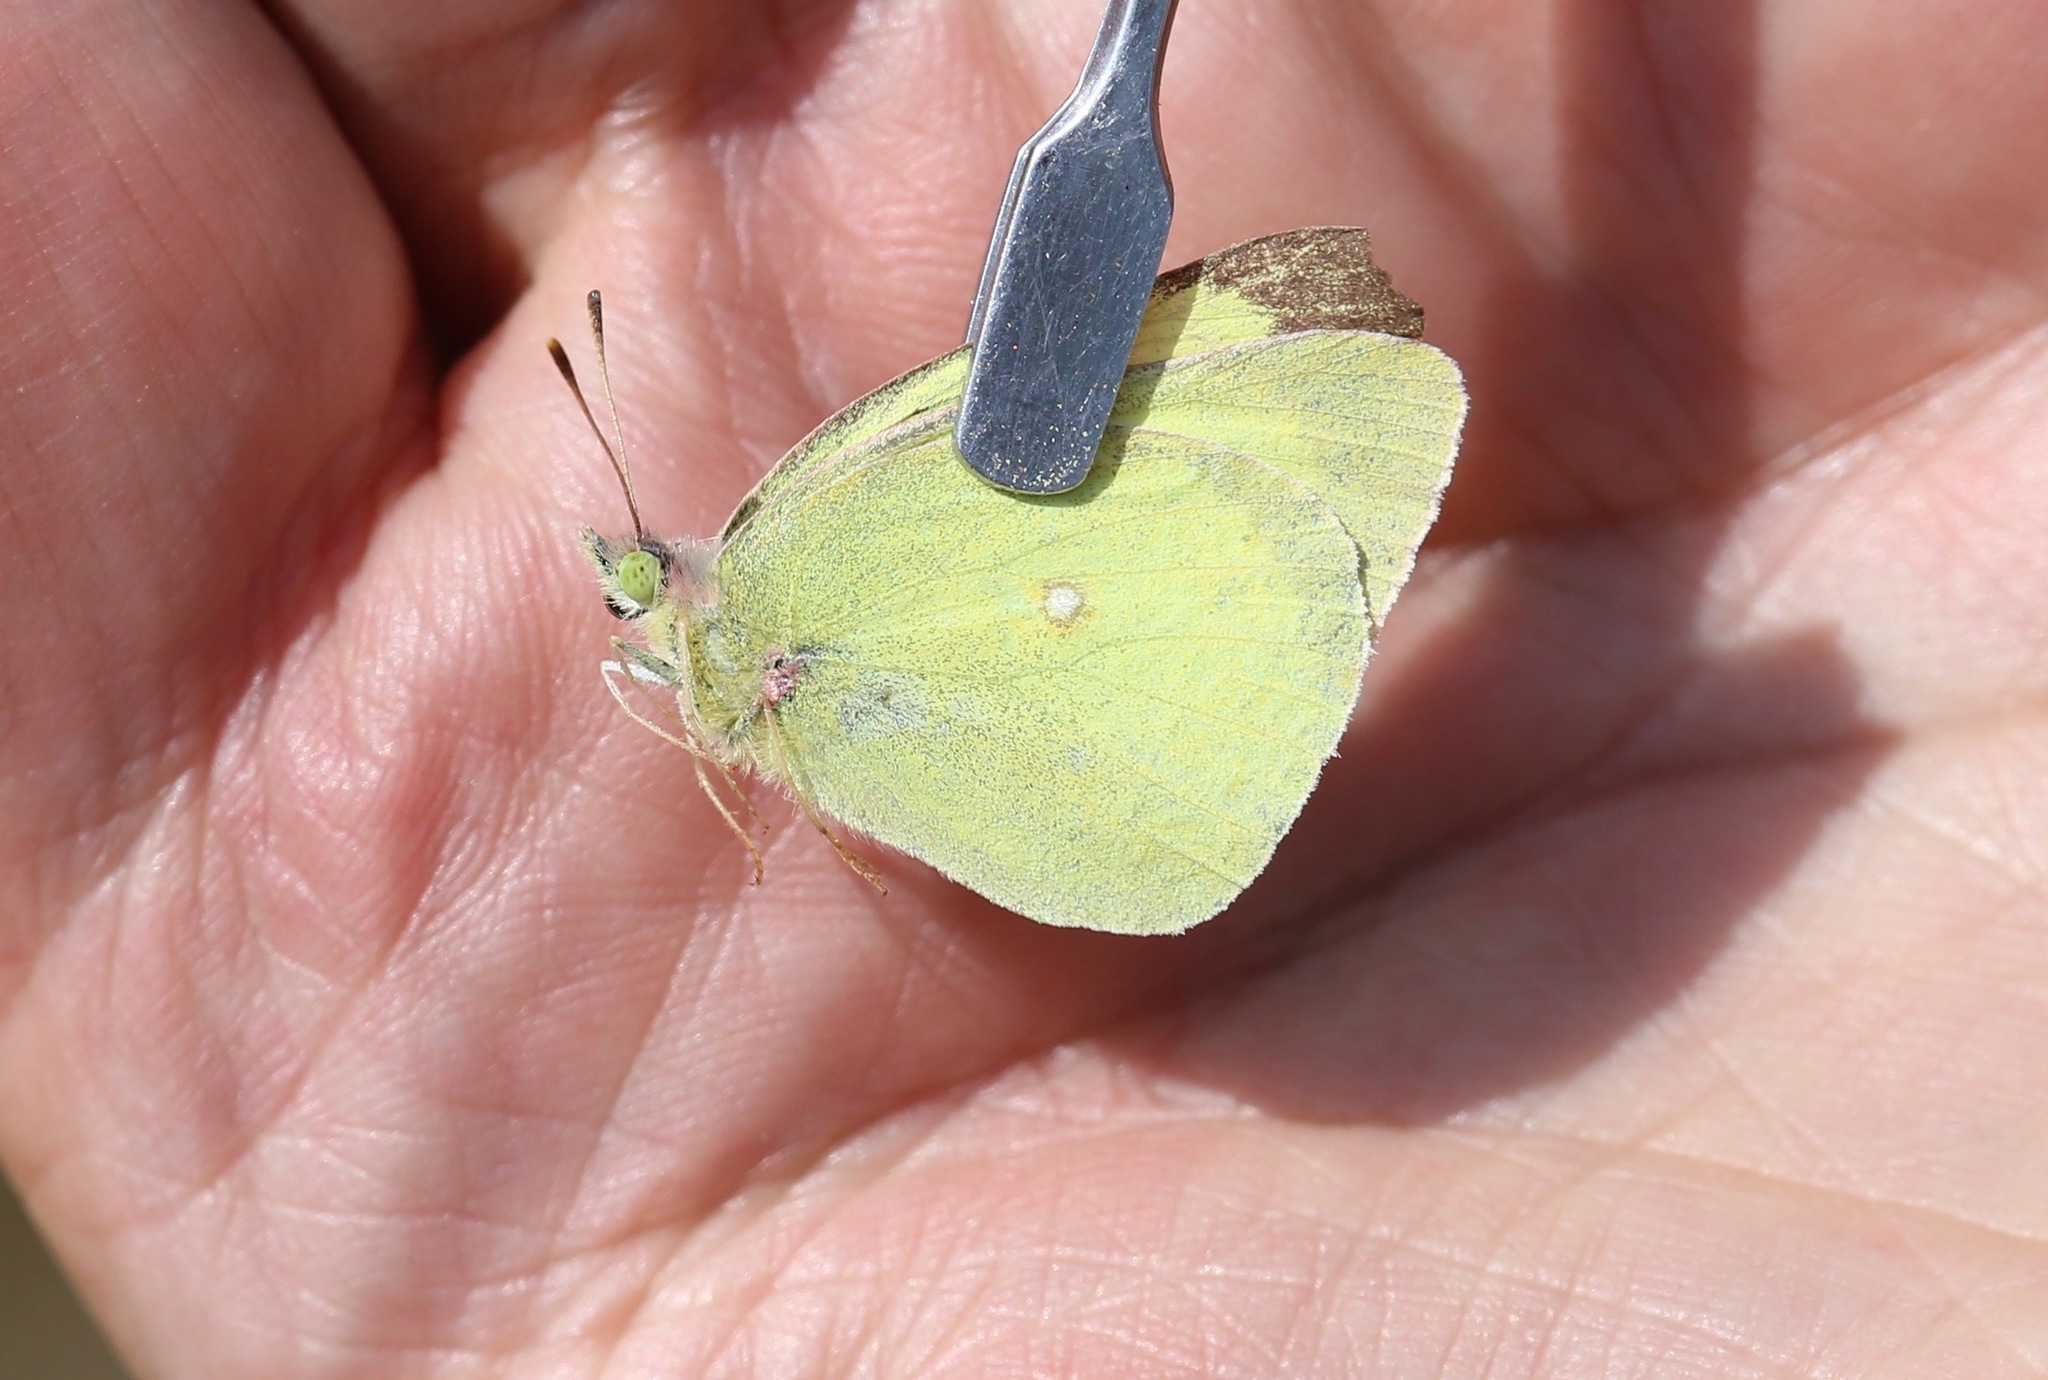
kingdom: Animalia
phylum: Arthropoda
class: Insecta
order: Lepidoptera
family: Pieridae
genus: Colias
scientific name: Colias interior
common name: Pink-edged sulphur
